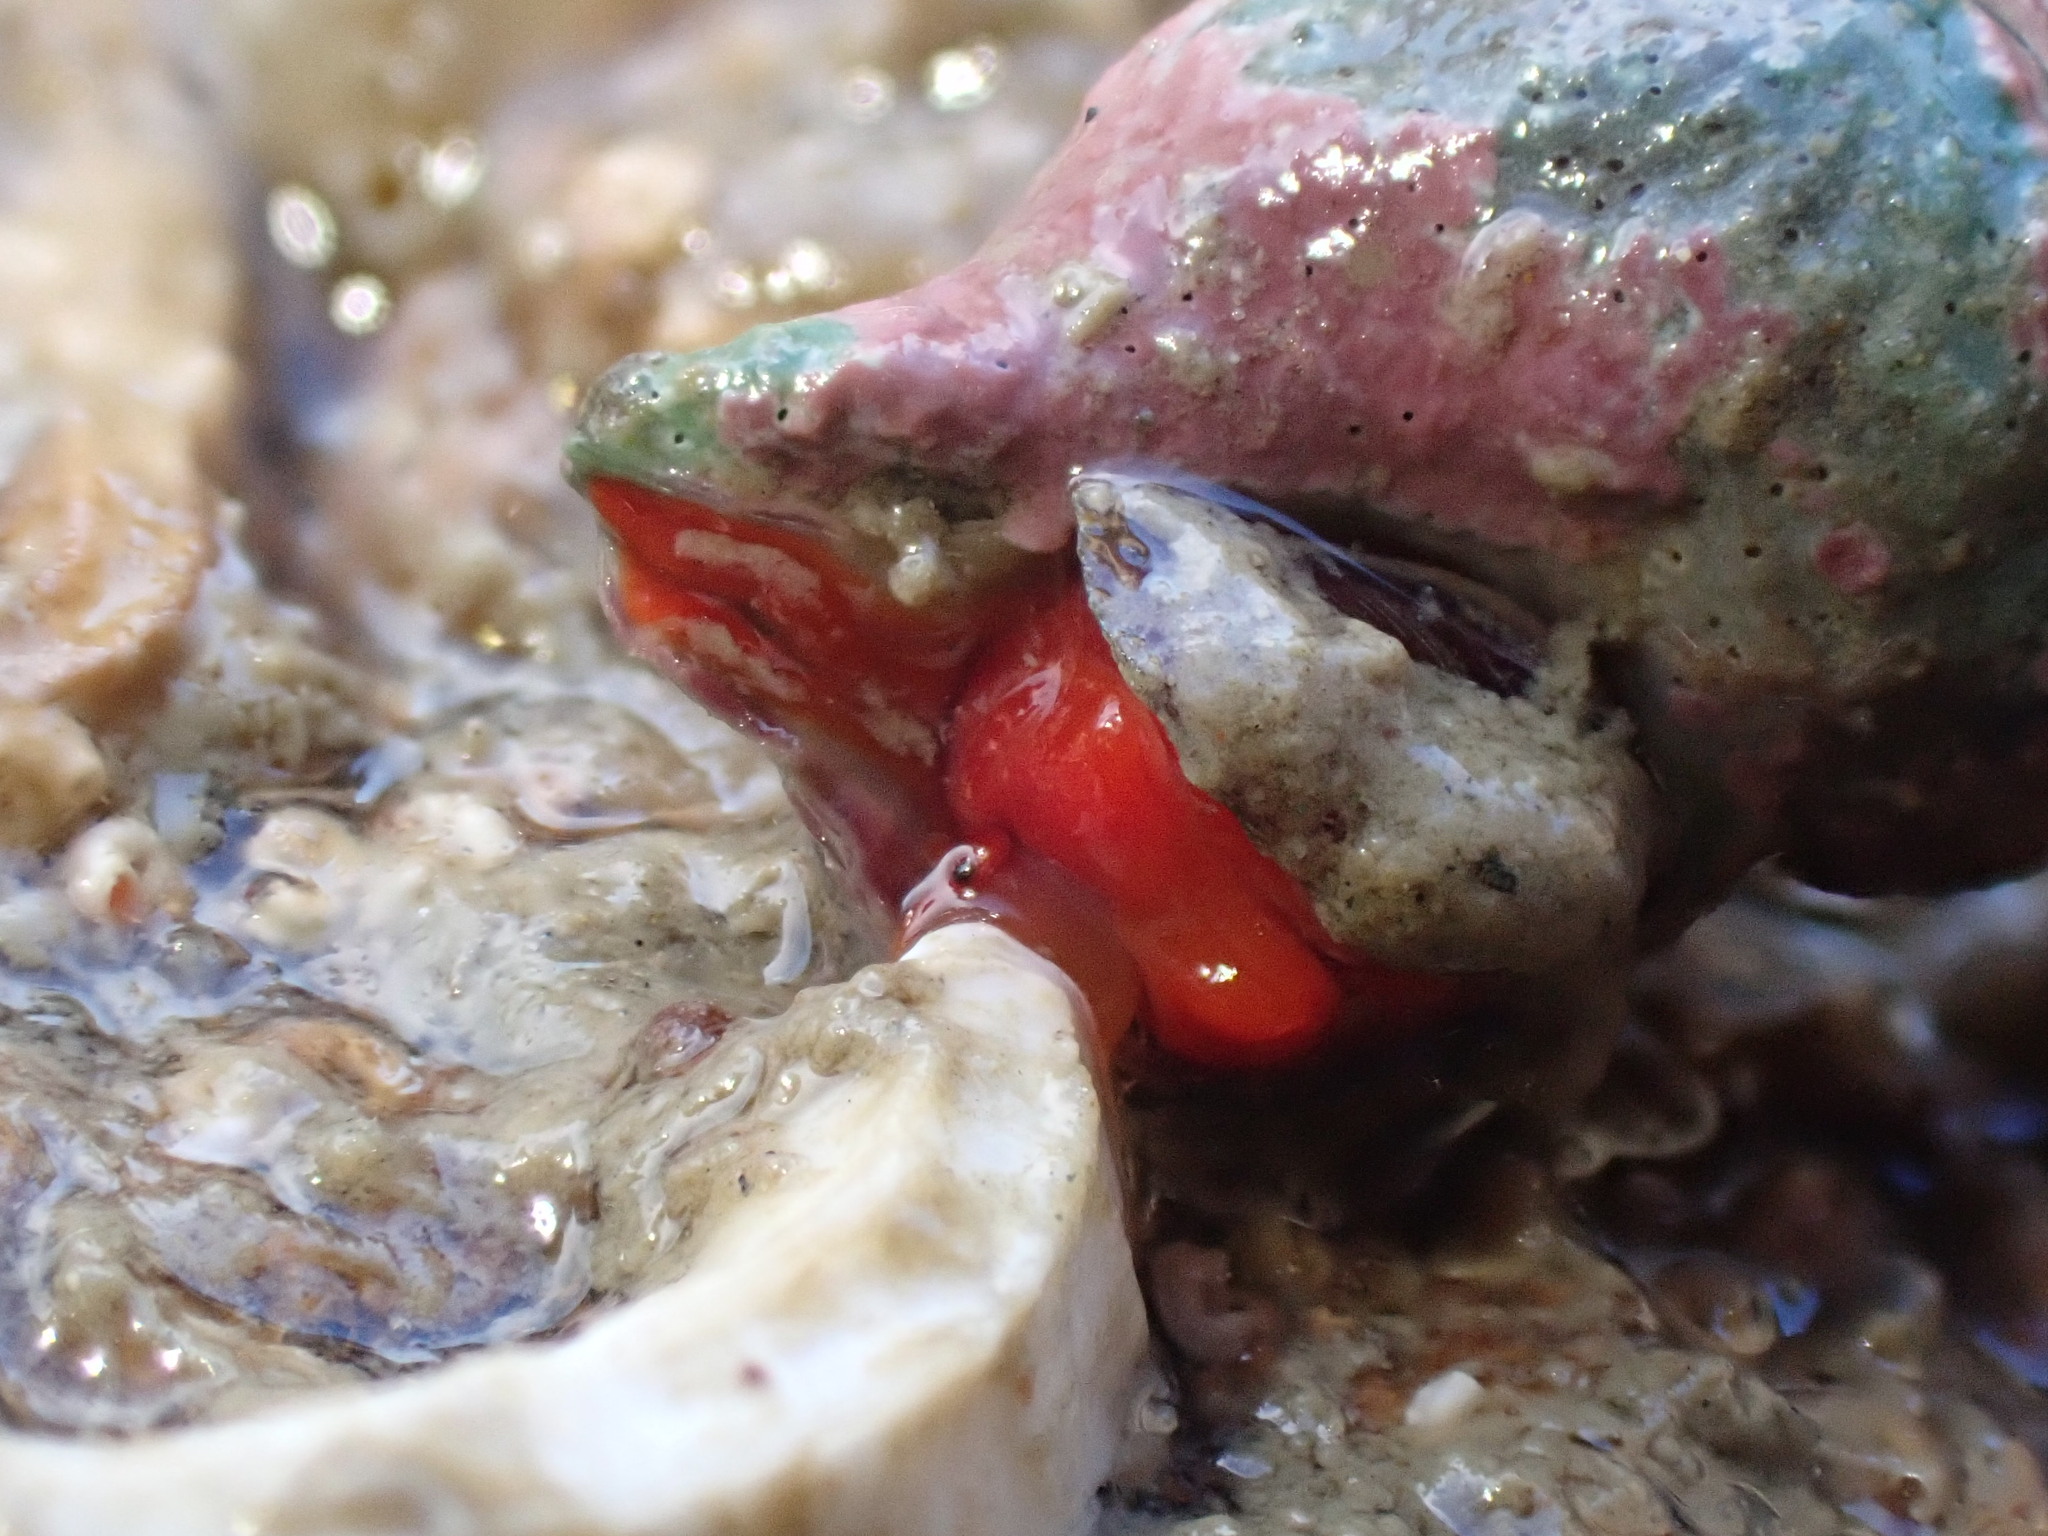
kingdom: Animalia
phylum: Mollusca
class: Gastropoda
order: Neogastropoda
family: Fasciolariidae
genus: Taron
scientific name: Taron dubius
